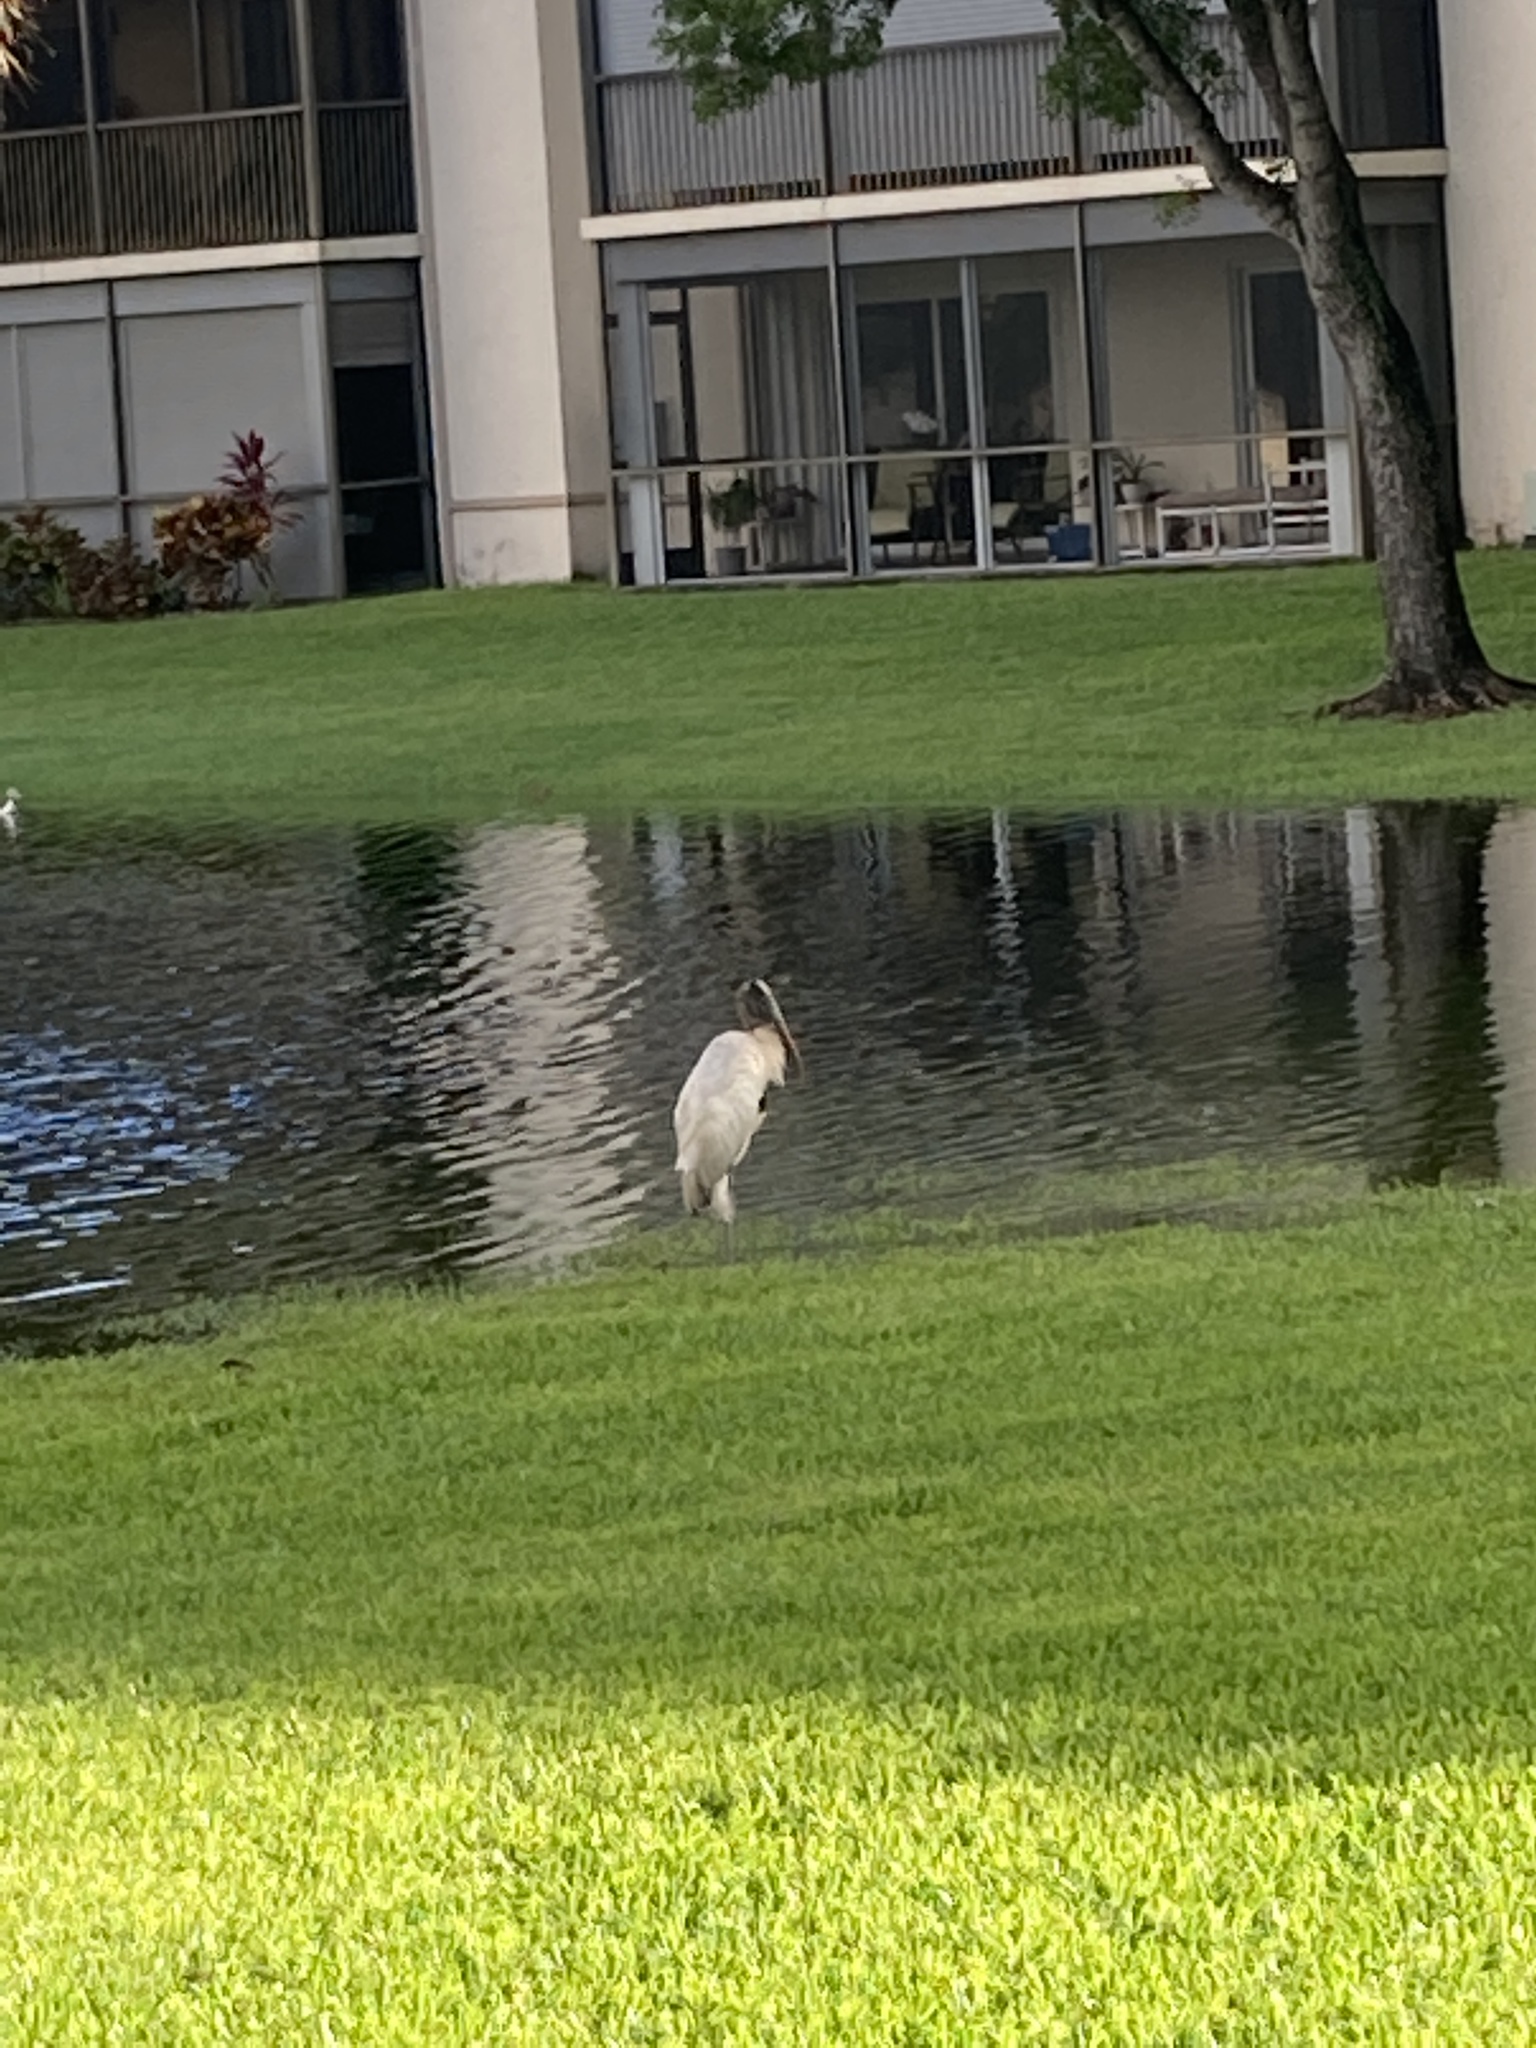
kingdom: Animalia
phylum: Chordata
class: Aves
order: Ciconiiformes
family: Ciconiidae
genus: Mycteria
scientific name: Mycteria americana
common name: Wood stork
